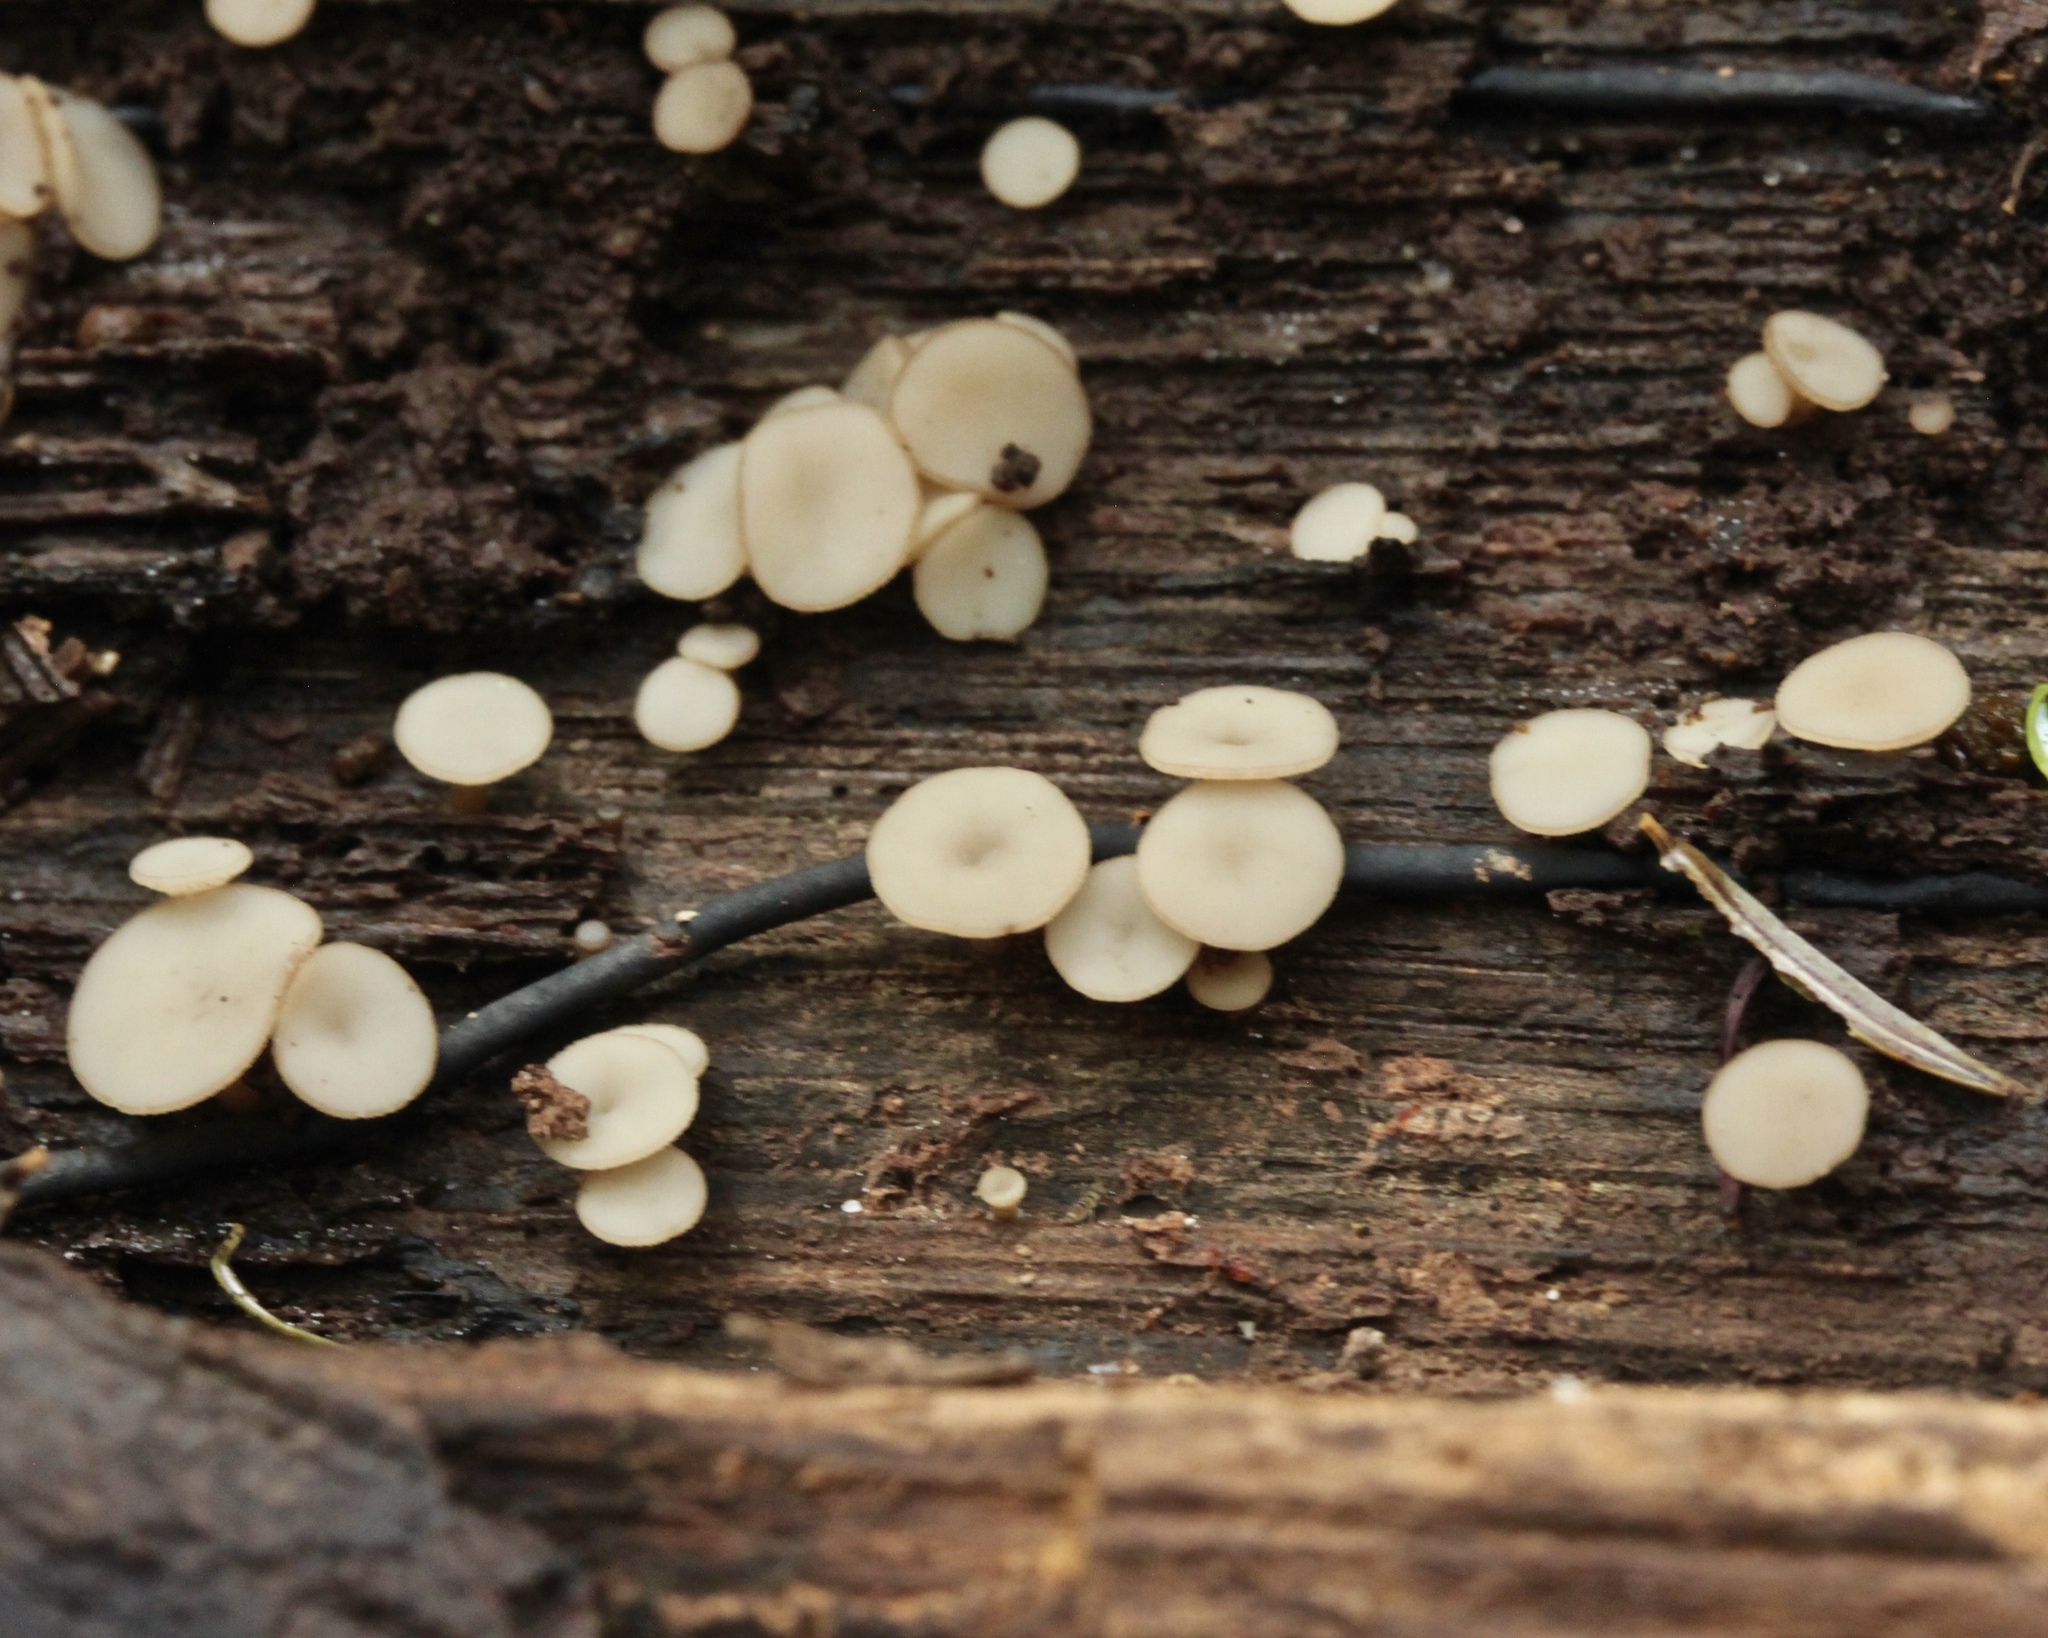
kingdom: Fungi
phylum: Ascomycota
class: Leotiomycetes
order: Helotiales
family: Helotiaceae
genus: Tatraea
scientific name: Tatraea macrospora
